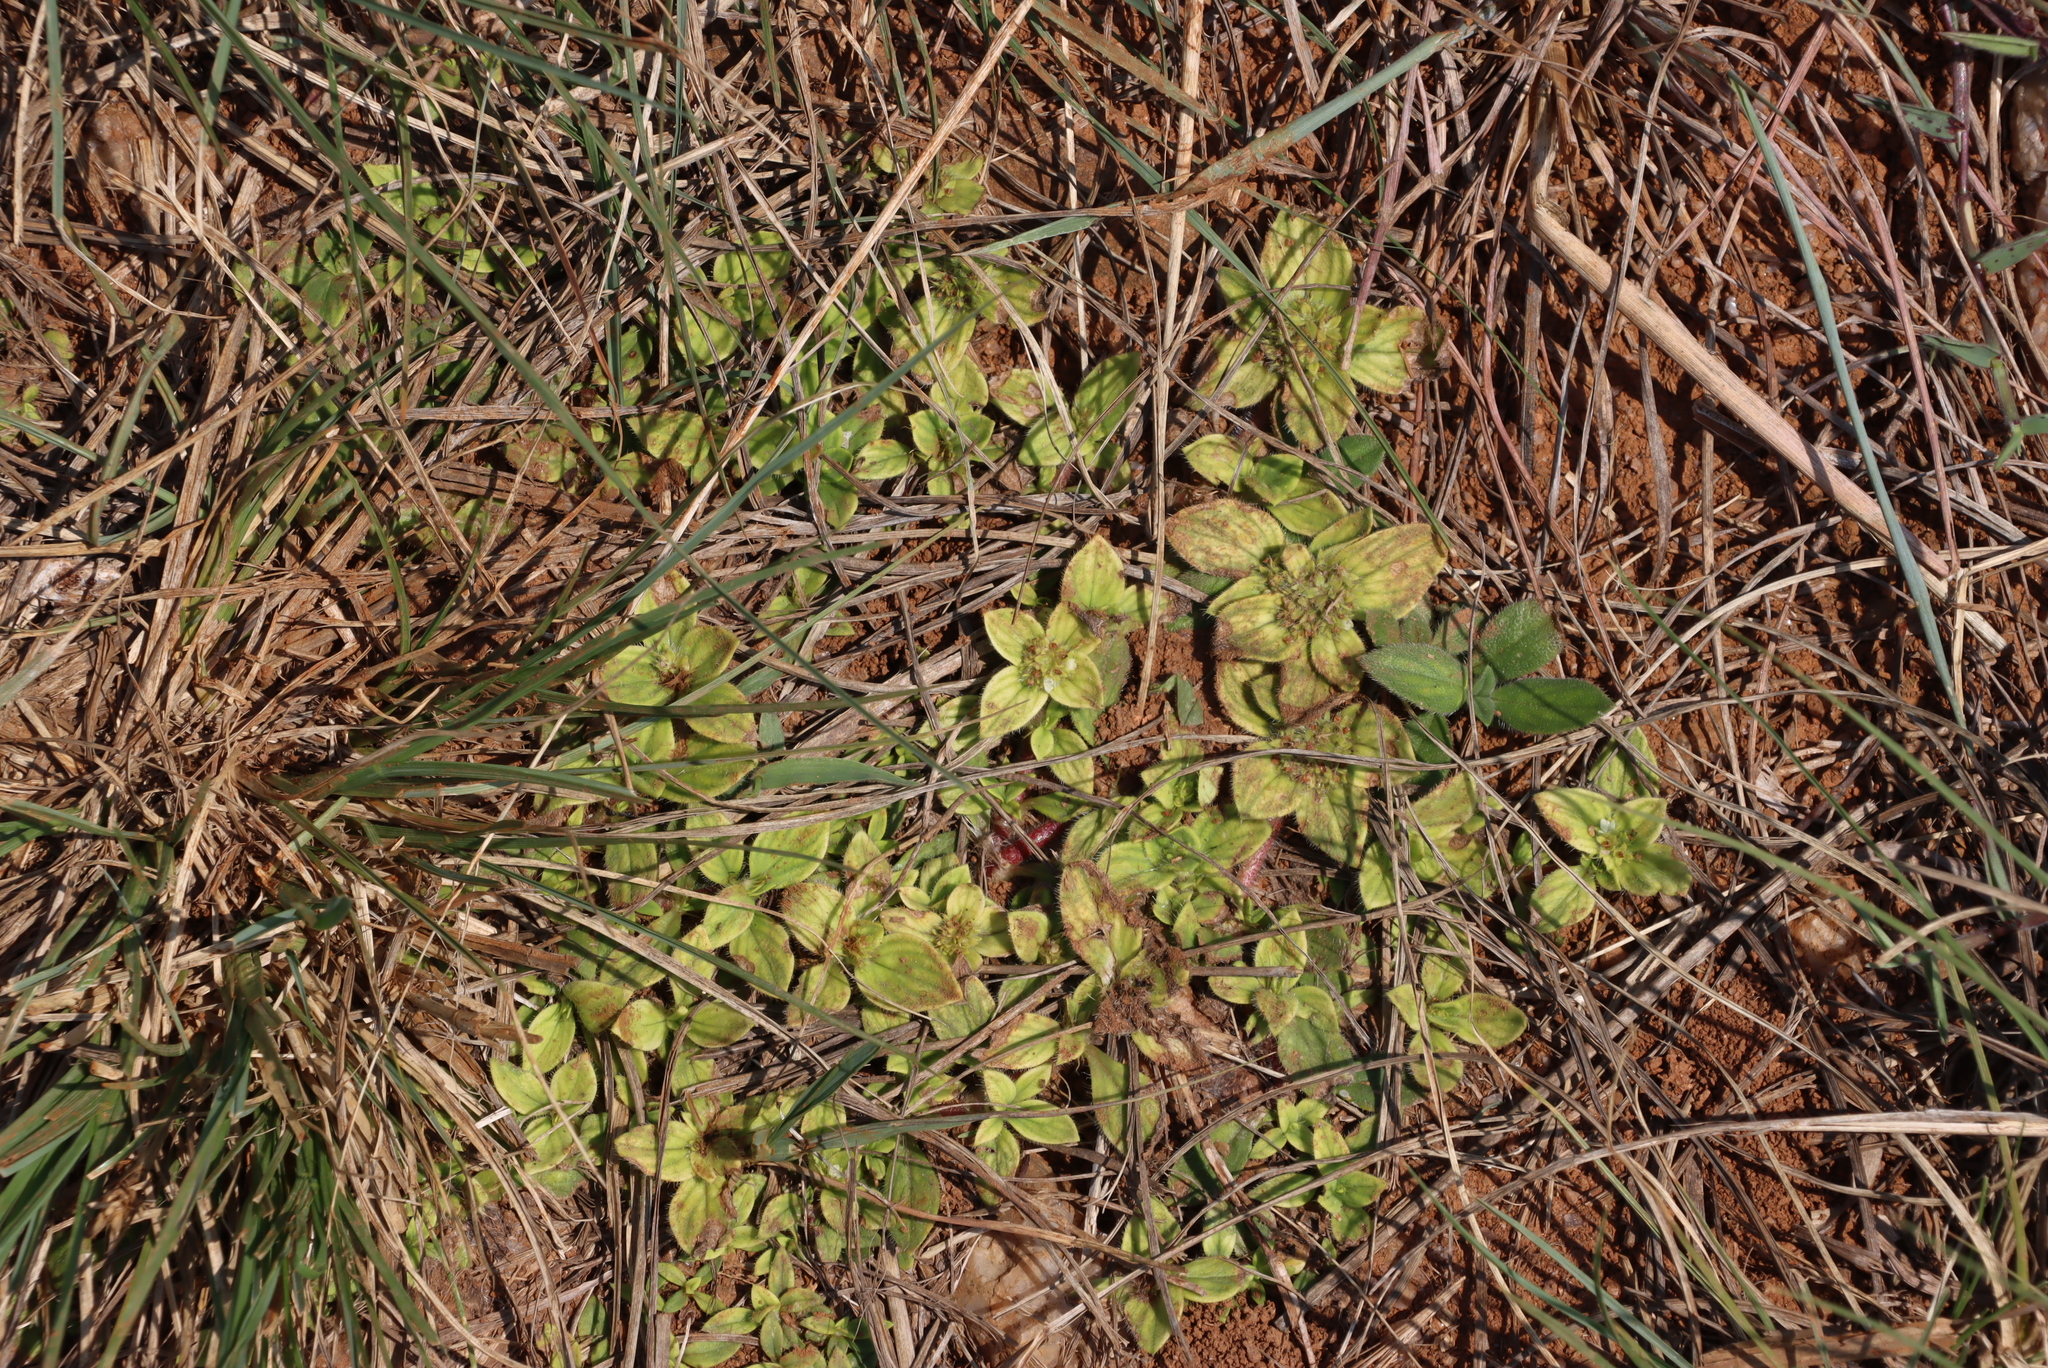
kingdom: Plantae
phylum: Tracheophyta
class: Magnoliopsida
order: Gentianales
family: Rubiaceae
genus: Richardia
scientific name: Richardia brasiliensis
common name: Tropical mexican clover
